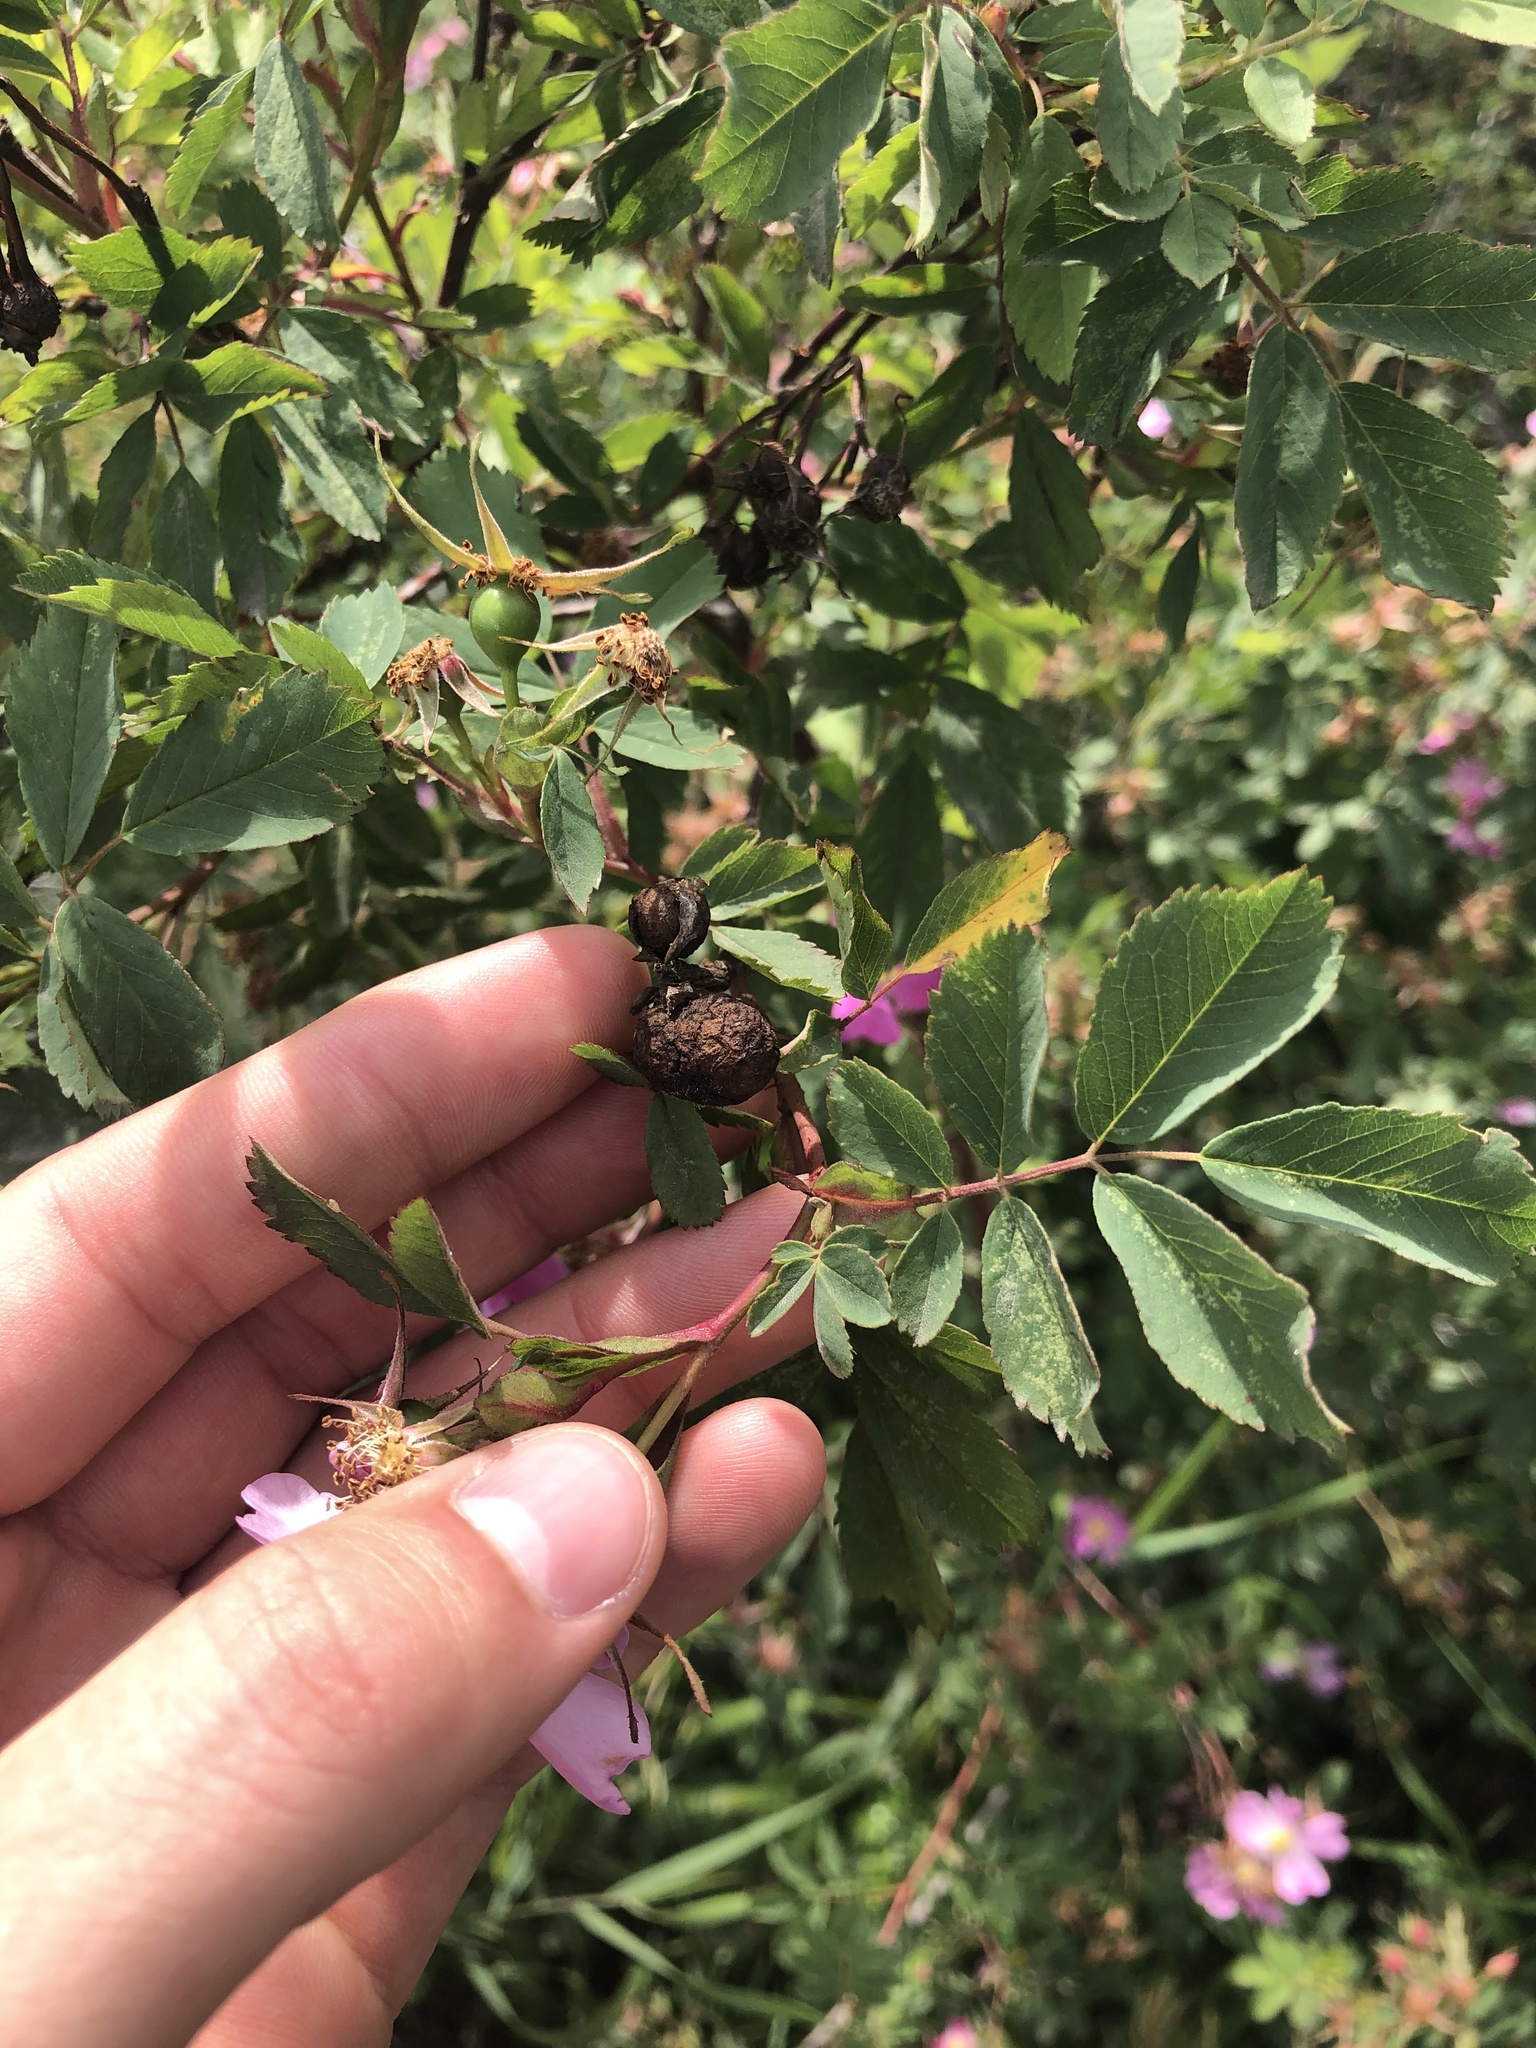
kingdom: Animalia
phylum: Arthropoda
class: Insecta
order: Hymenoptera
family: Cynipidae
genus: Diplolepis
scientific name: Diplolepis variabilis
